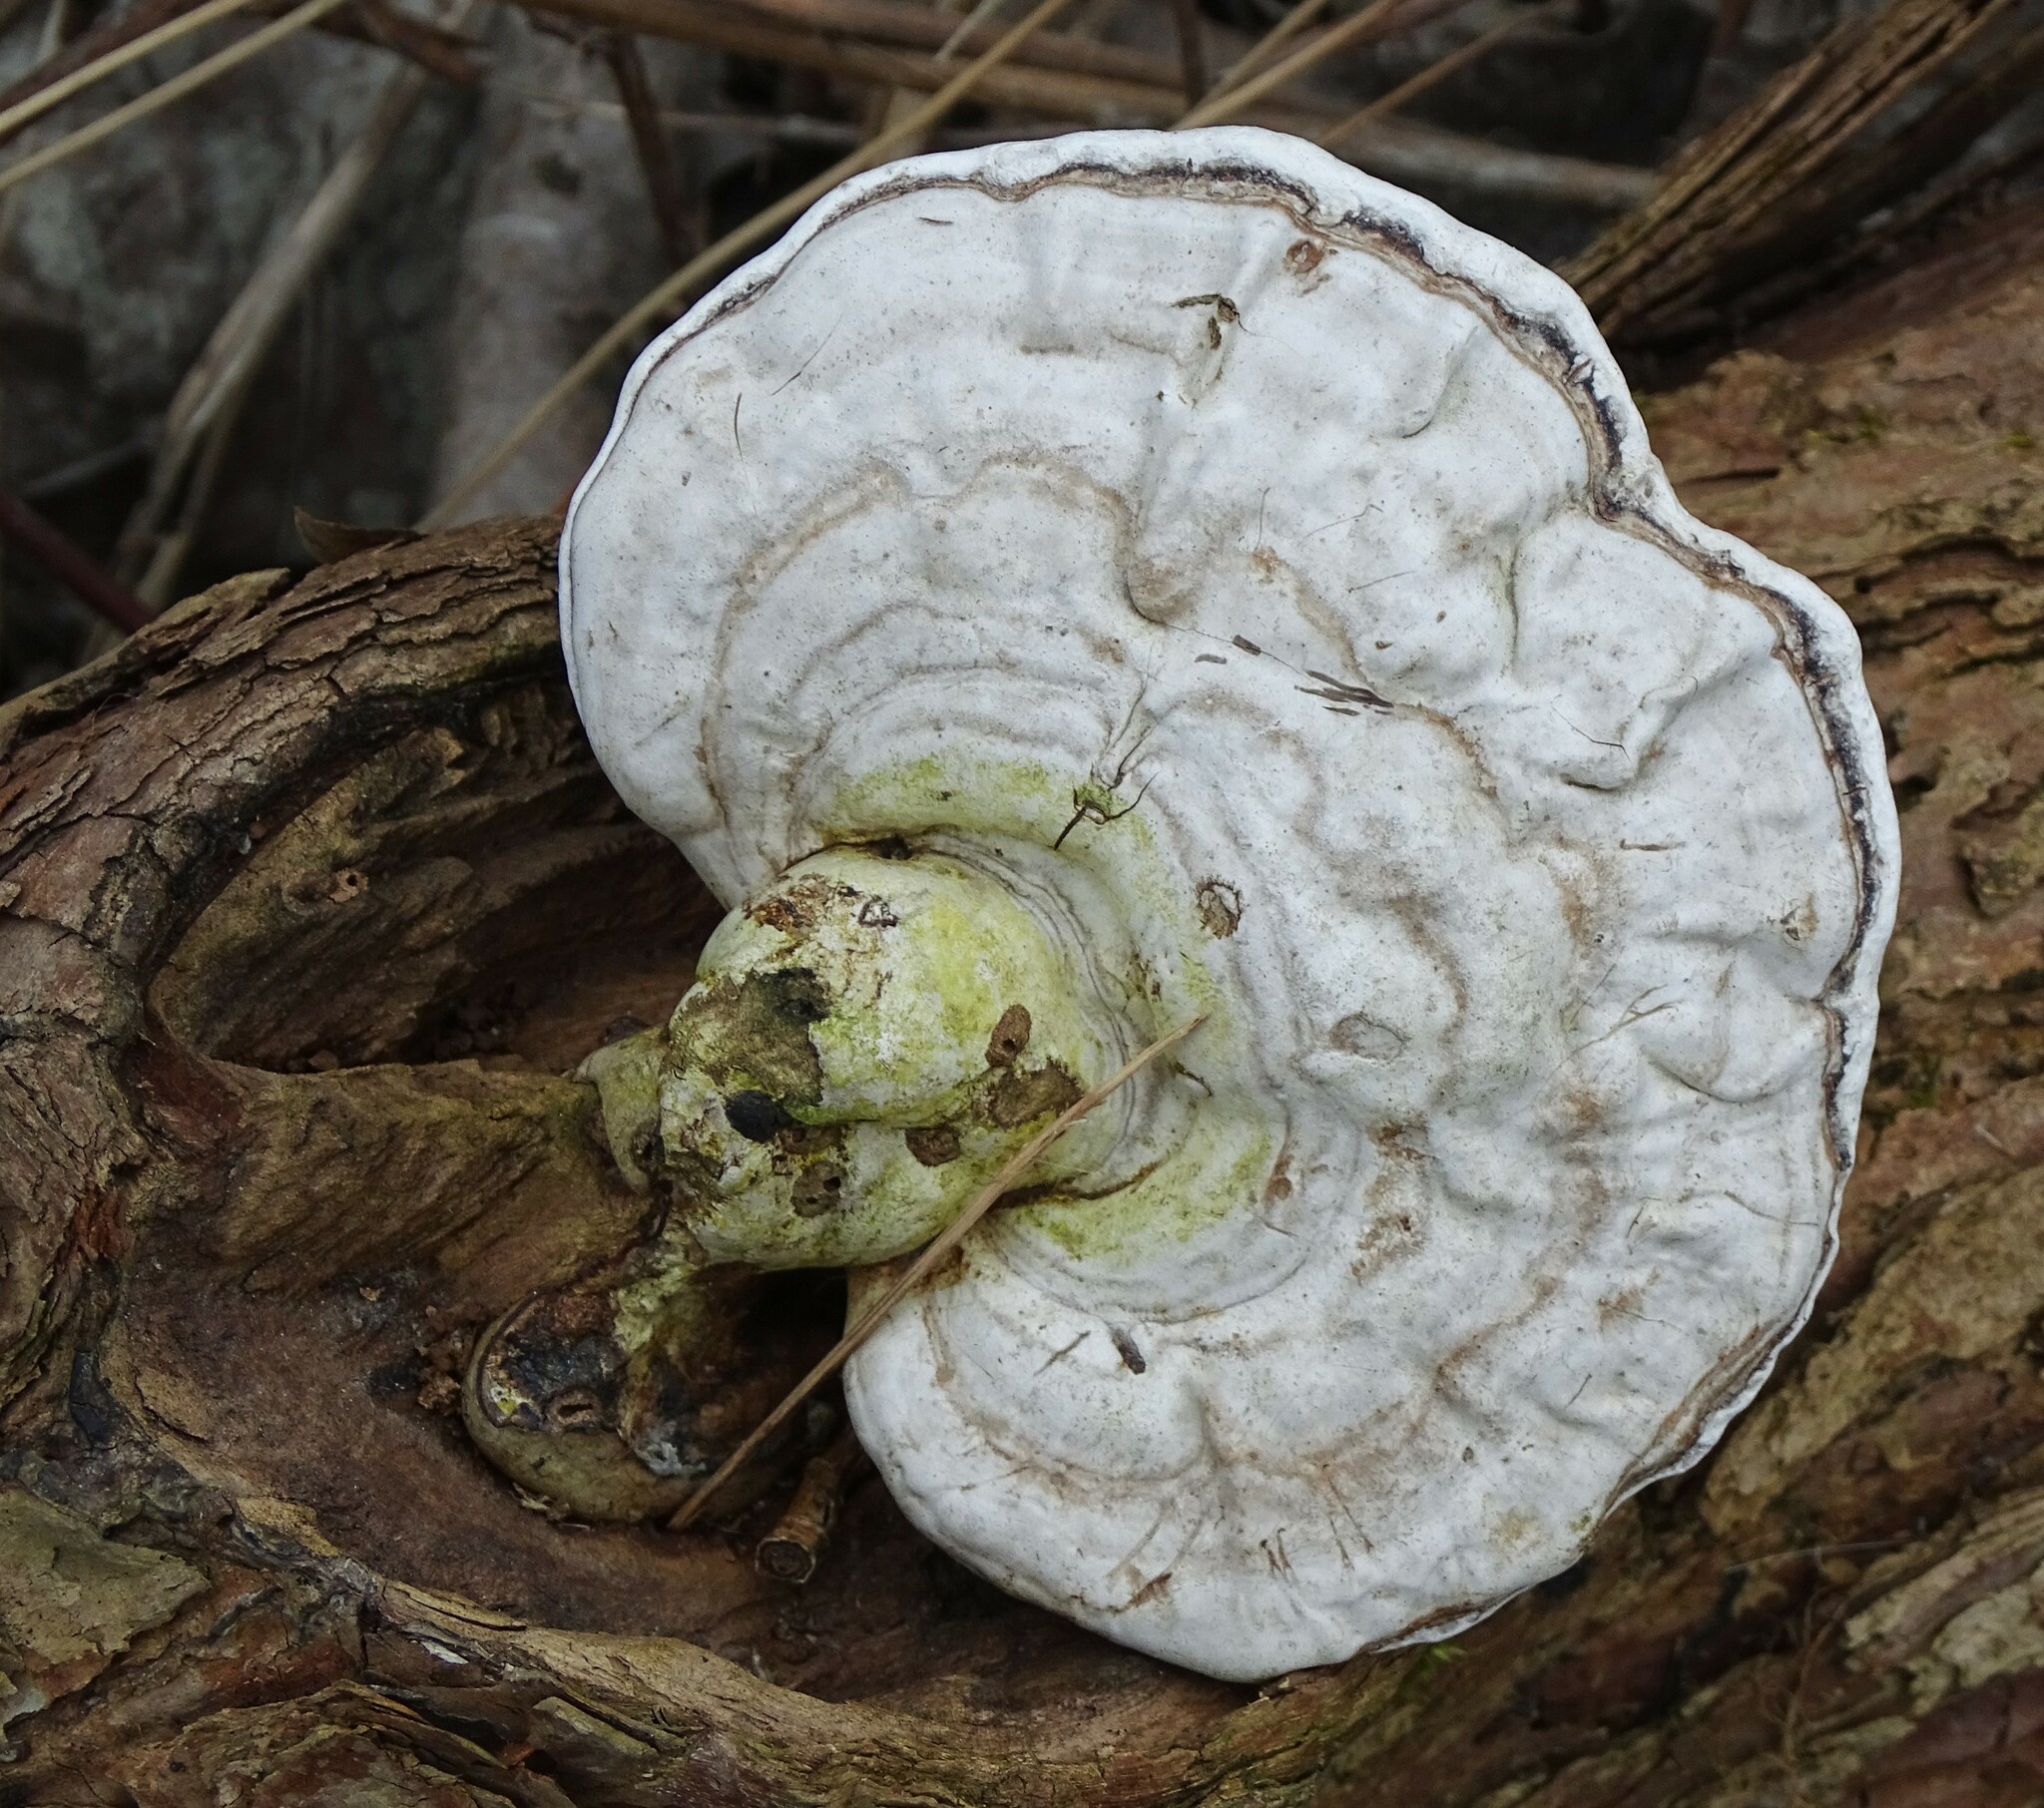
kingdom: Fungi
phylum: Basidiomycota
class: Agaricomycetes
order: Polyporales
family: Polyporaceae
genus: Ganoderma
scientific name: Ganoderma applanatum
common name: Artist's bracket
